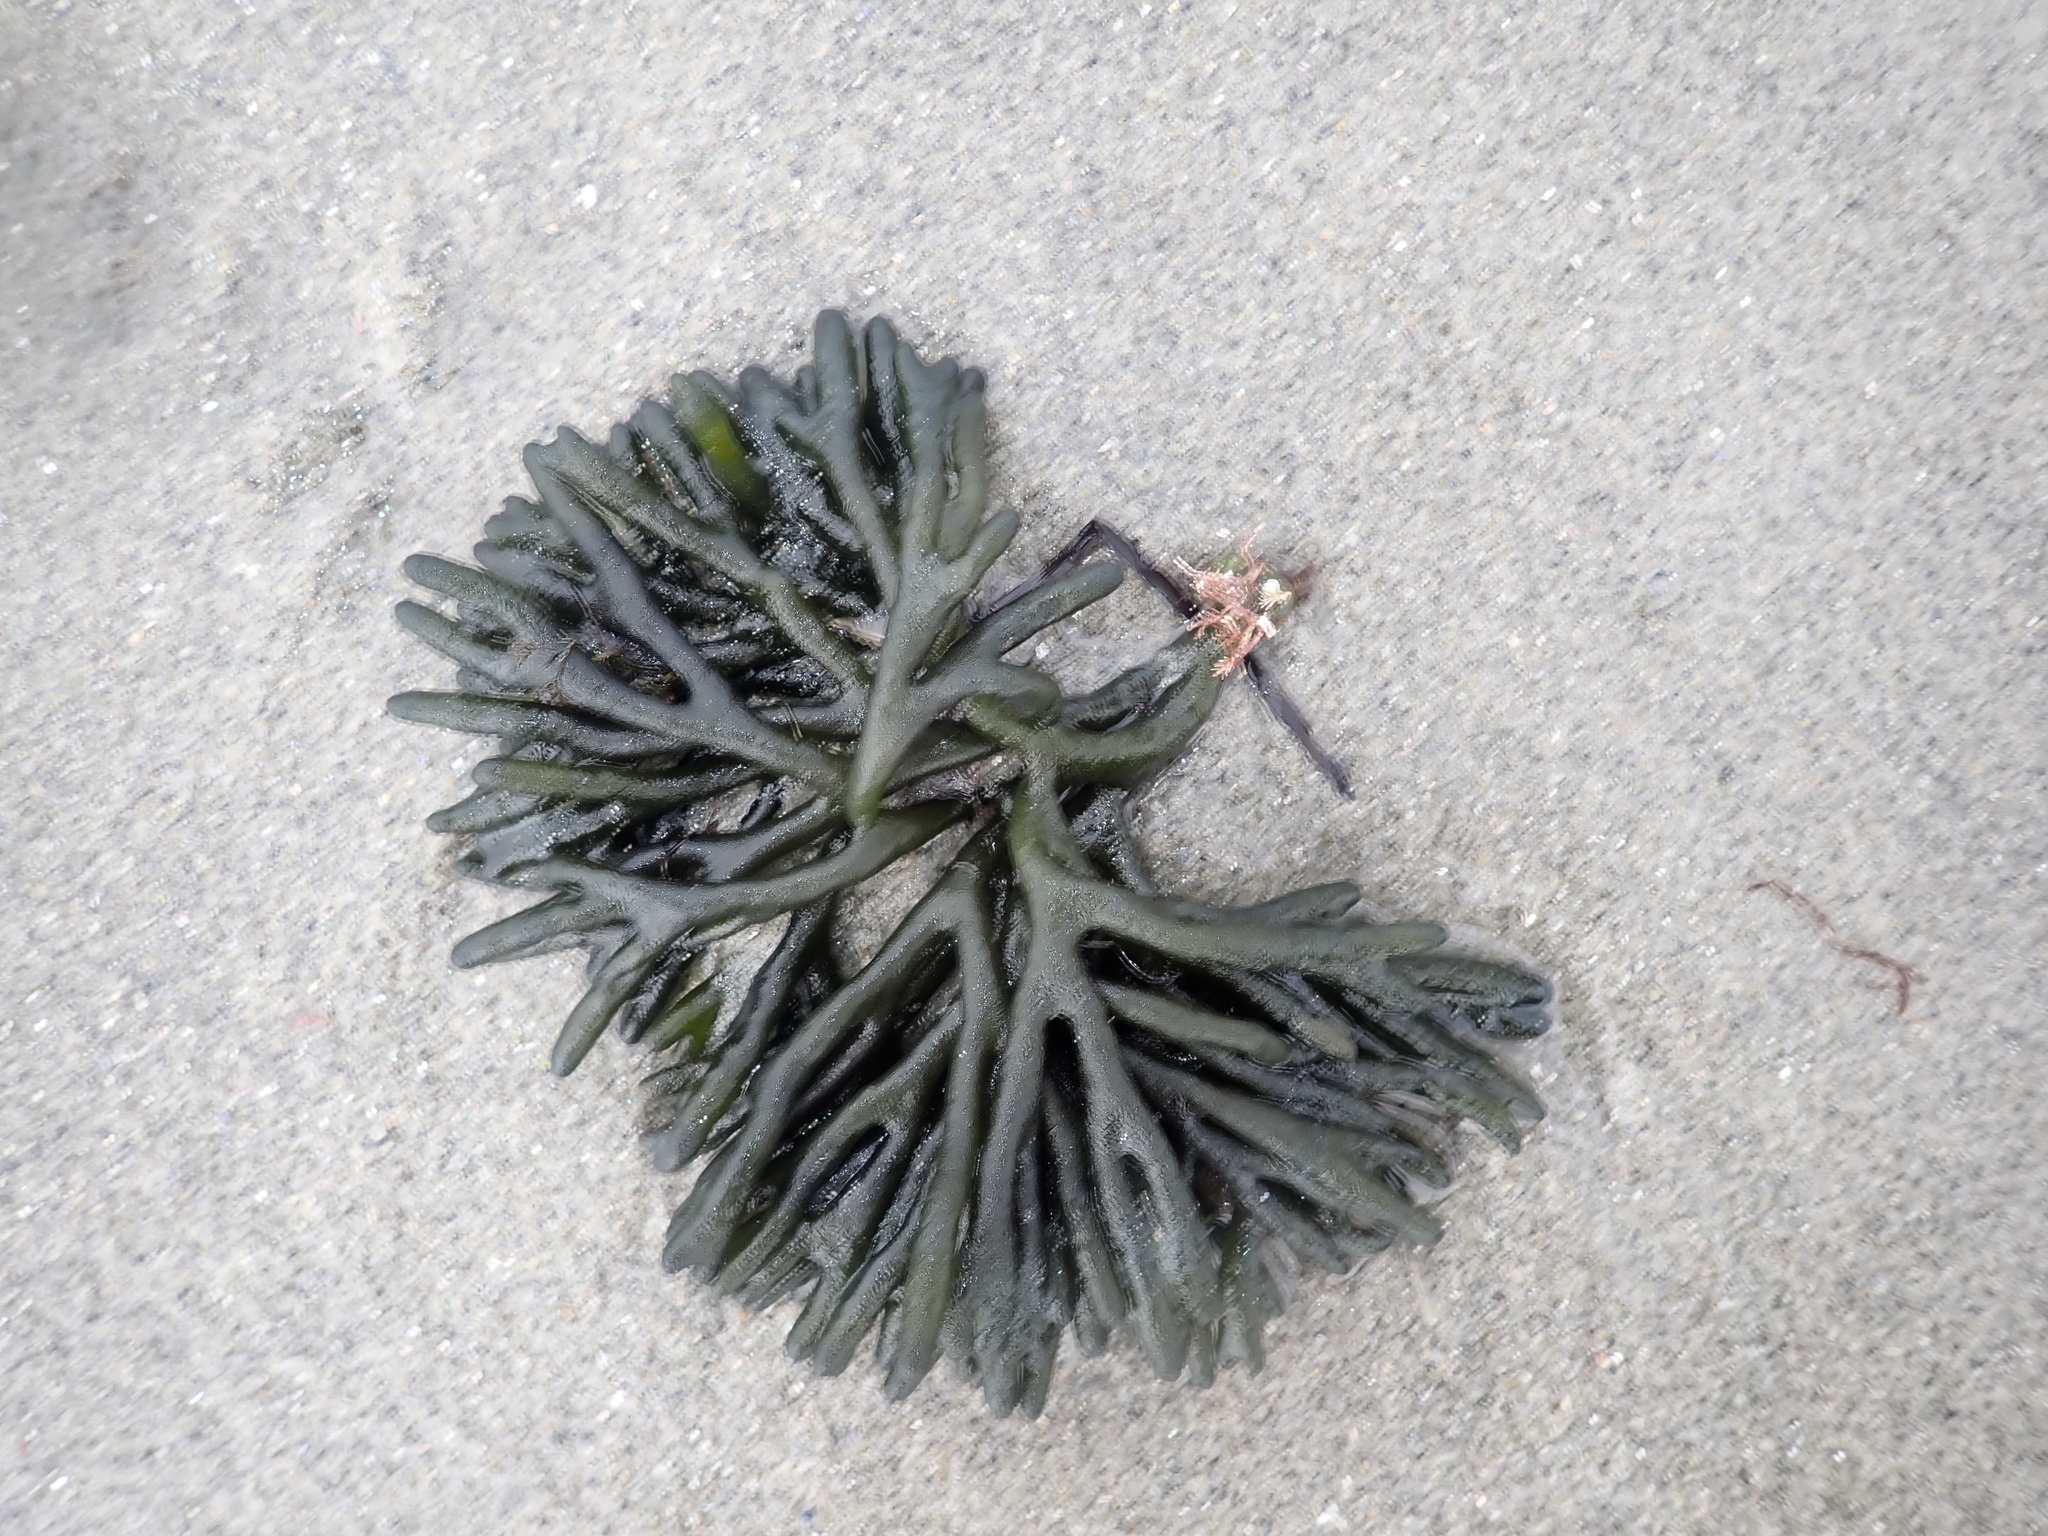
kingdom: Plantae
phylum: Chlorophyta
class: Ulvophyceae
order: Bryopsidales
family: Codiaceae
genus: Codium
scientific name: Codium fragile
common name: Dead man's fingers
